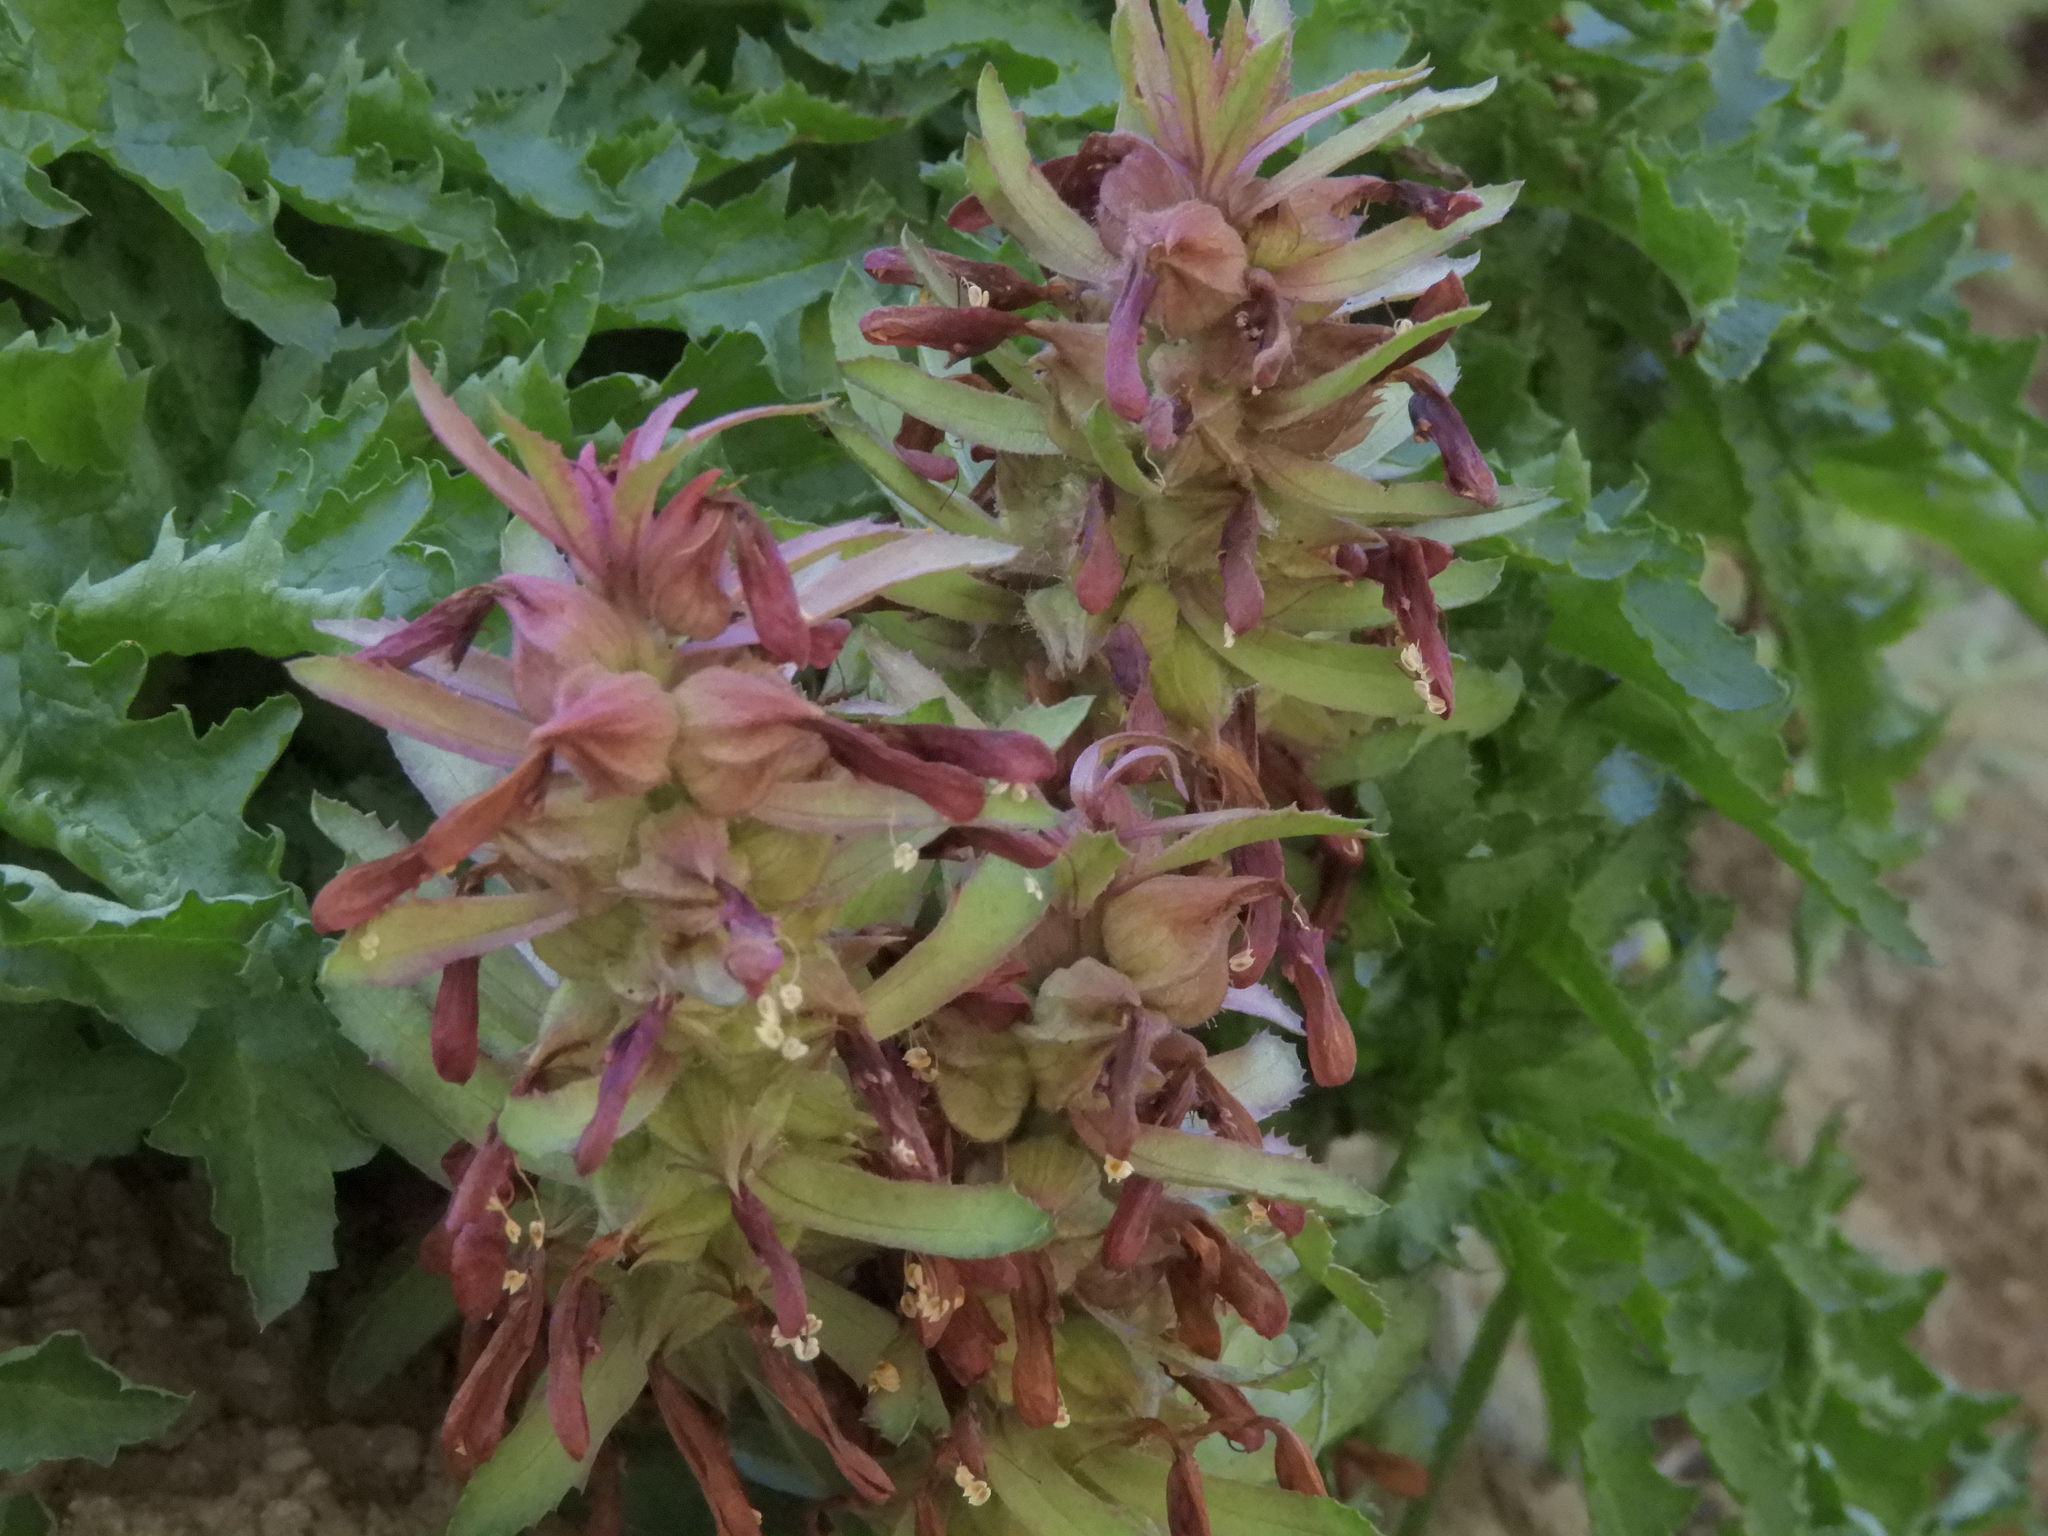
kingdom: Plantae
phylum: Tracheophyta
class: Magnoliopsida
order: Lamiales
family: Orobanchaceae
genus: Pedicularis
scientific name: Pedicularis densiflora
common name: Indian warrior
